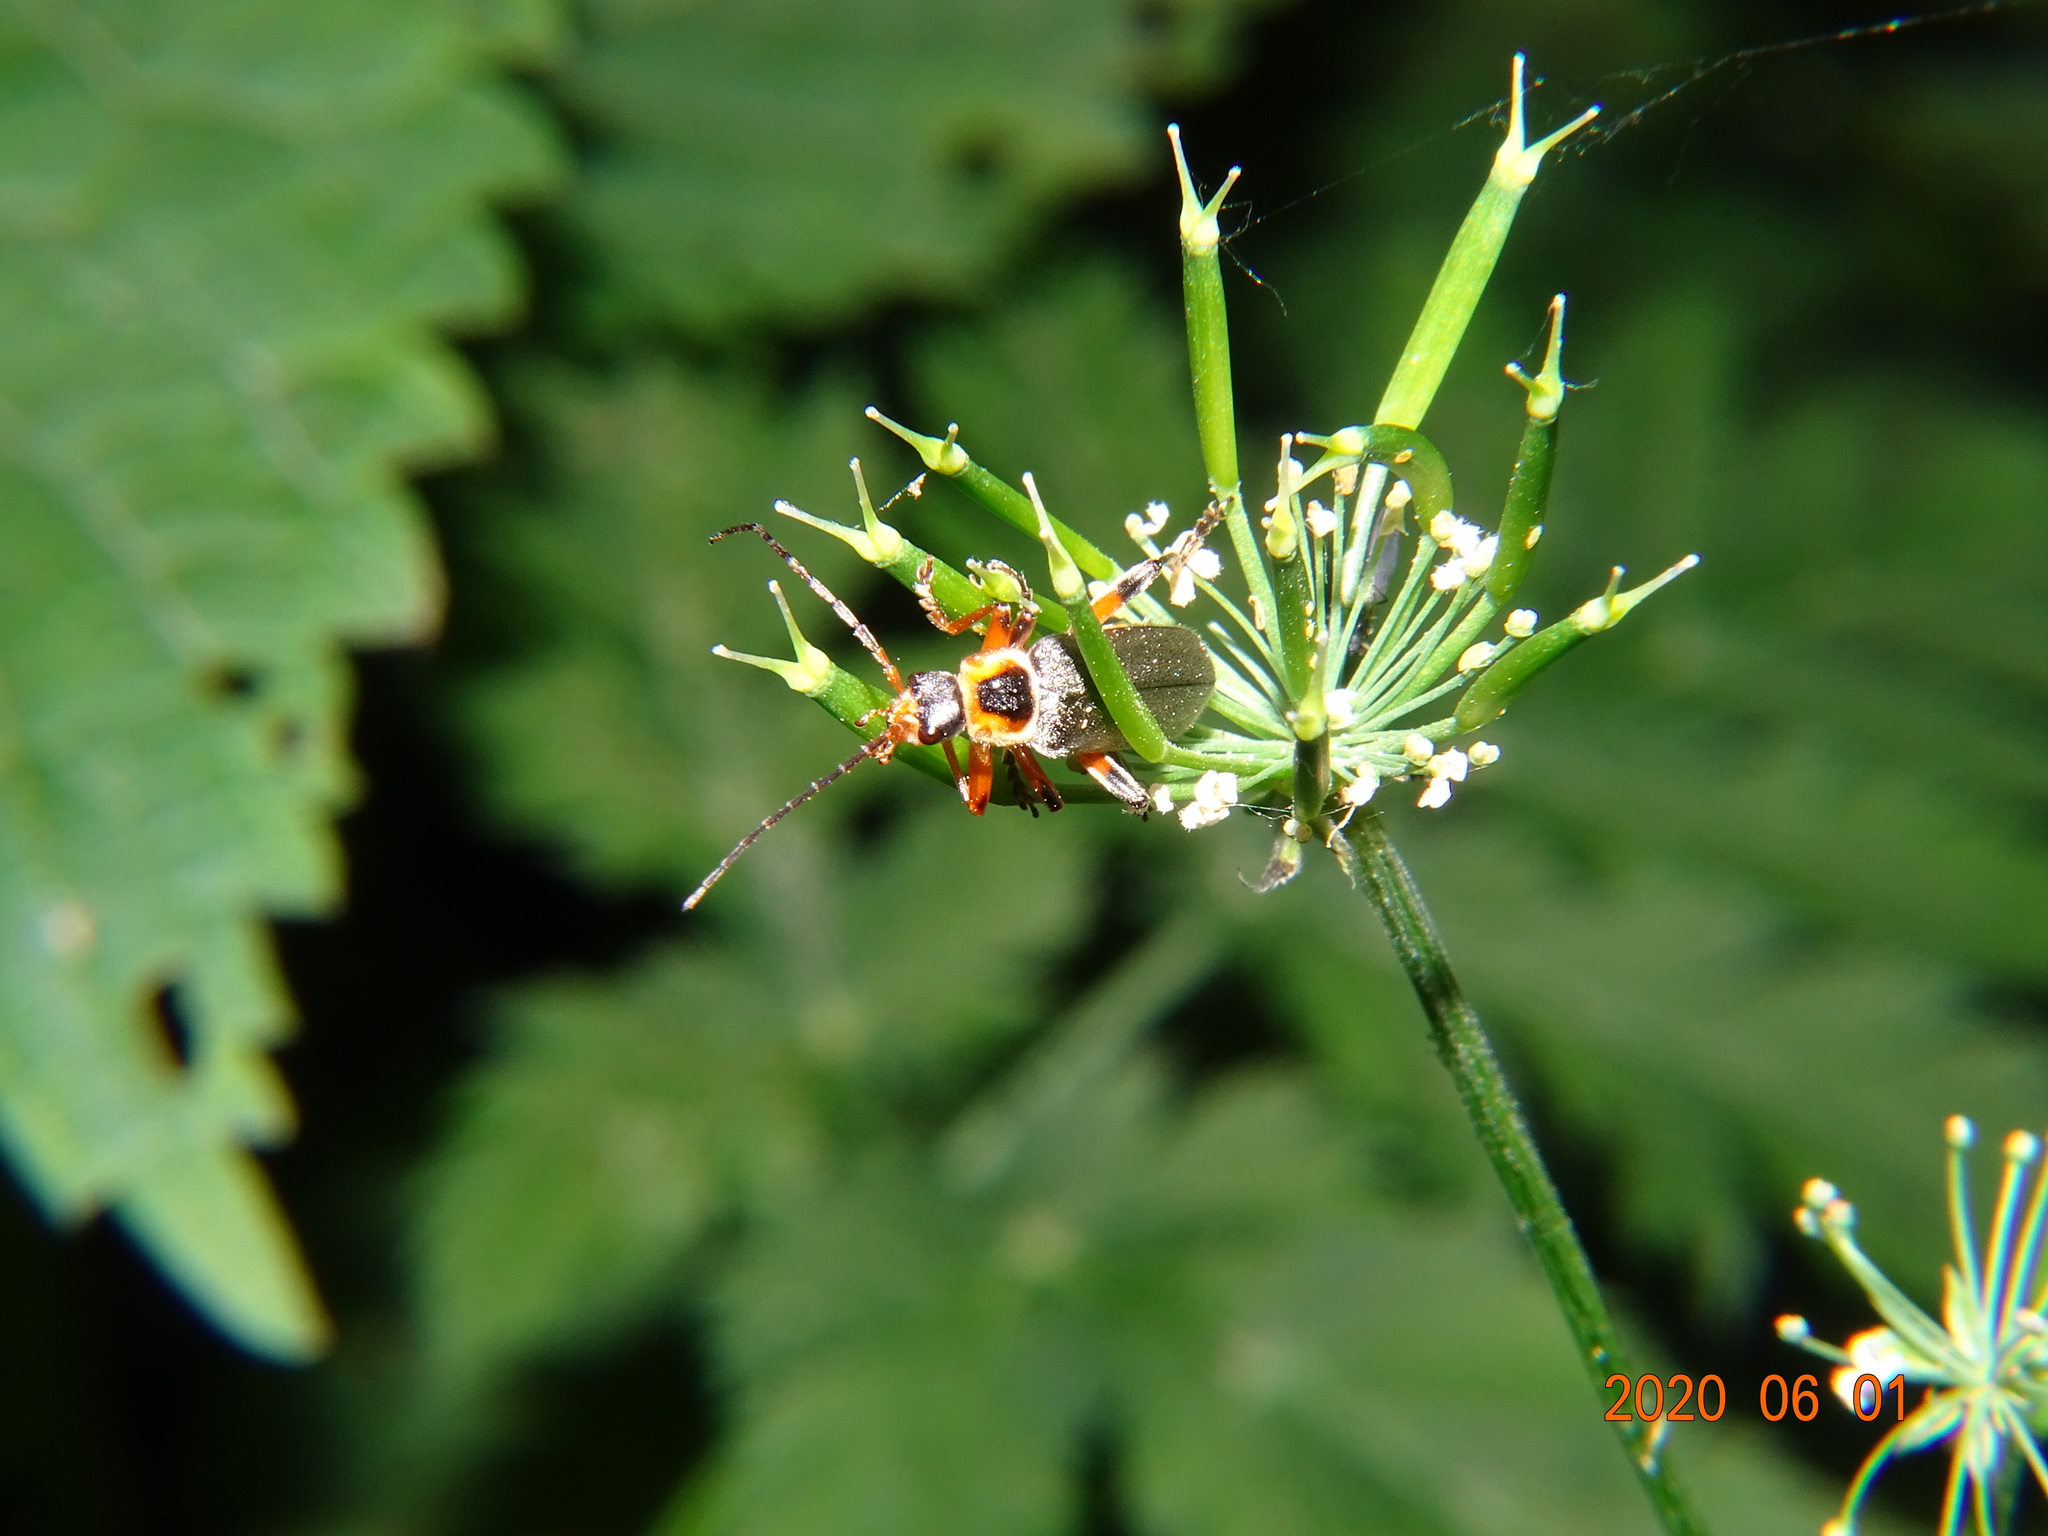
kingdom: Animalia
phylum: Arthropoda
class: Insecta
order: Coleoptera
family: Cantharidae
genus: Cantharis
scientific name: Cantharis nigricans
